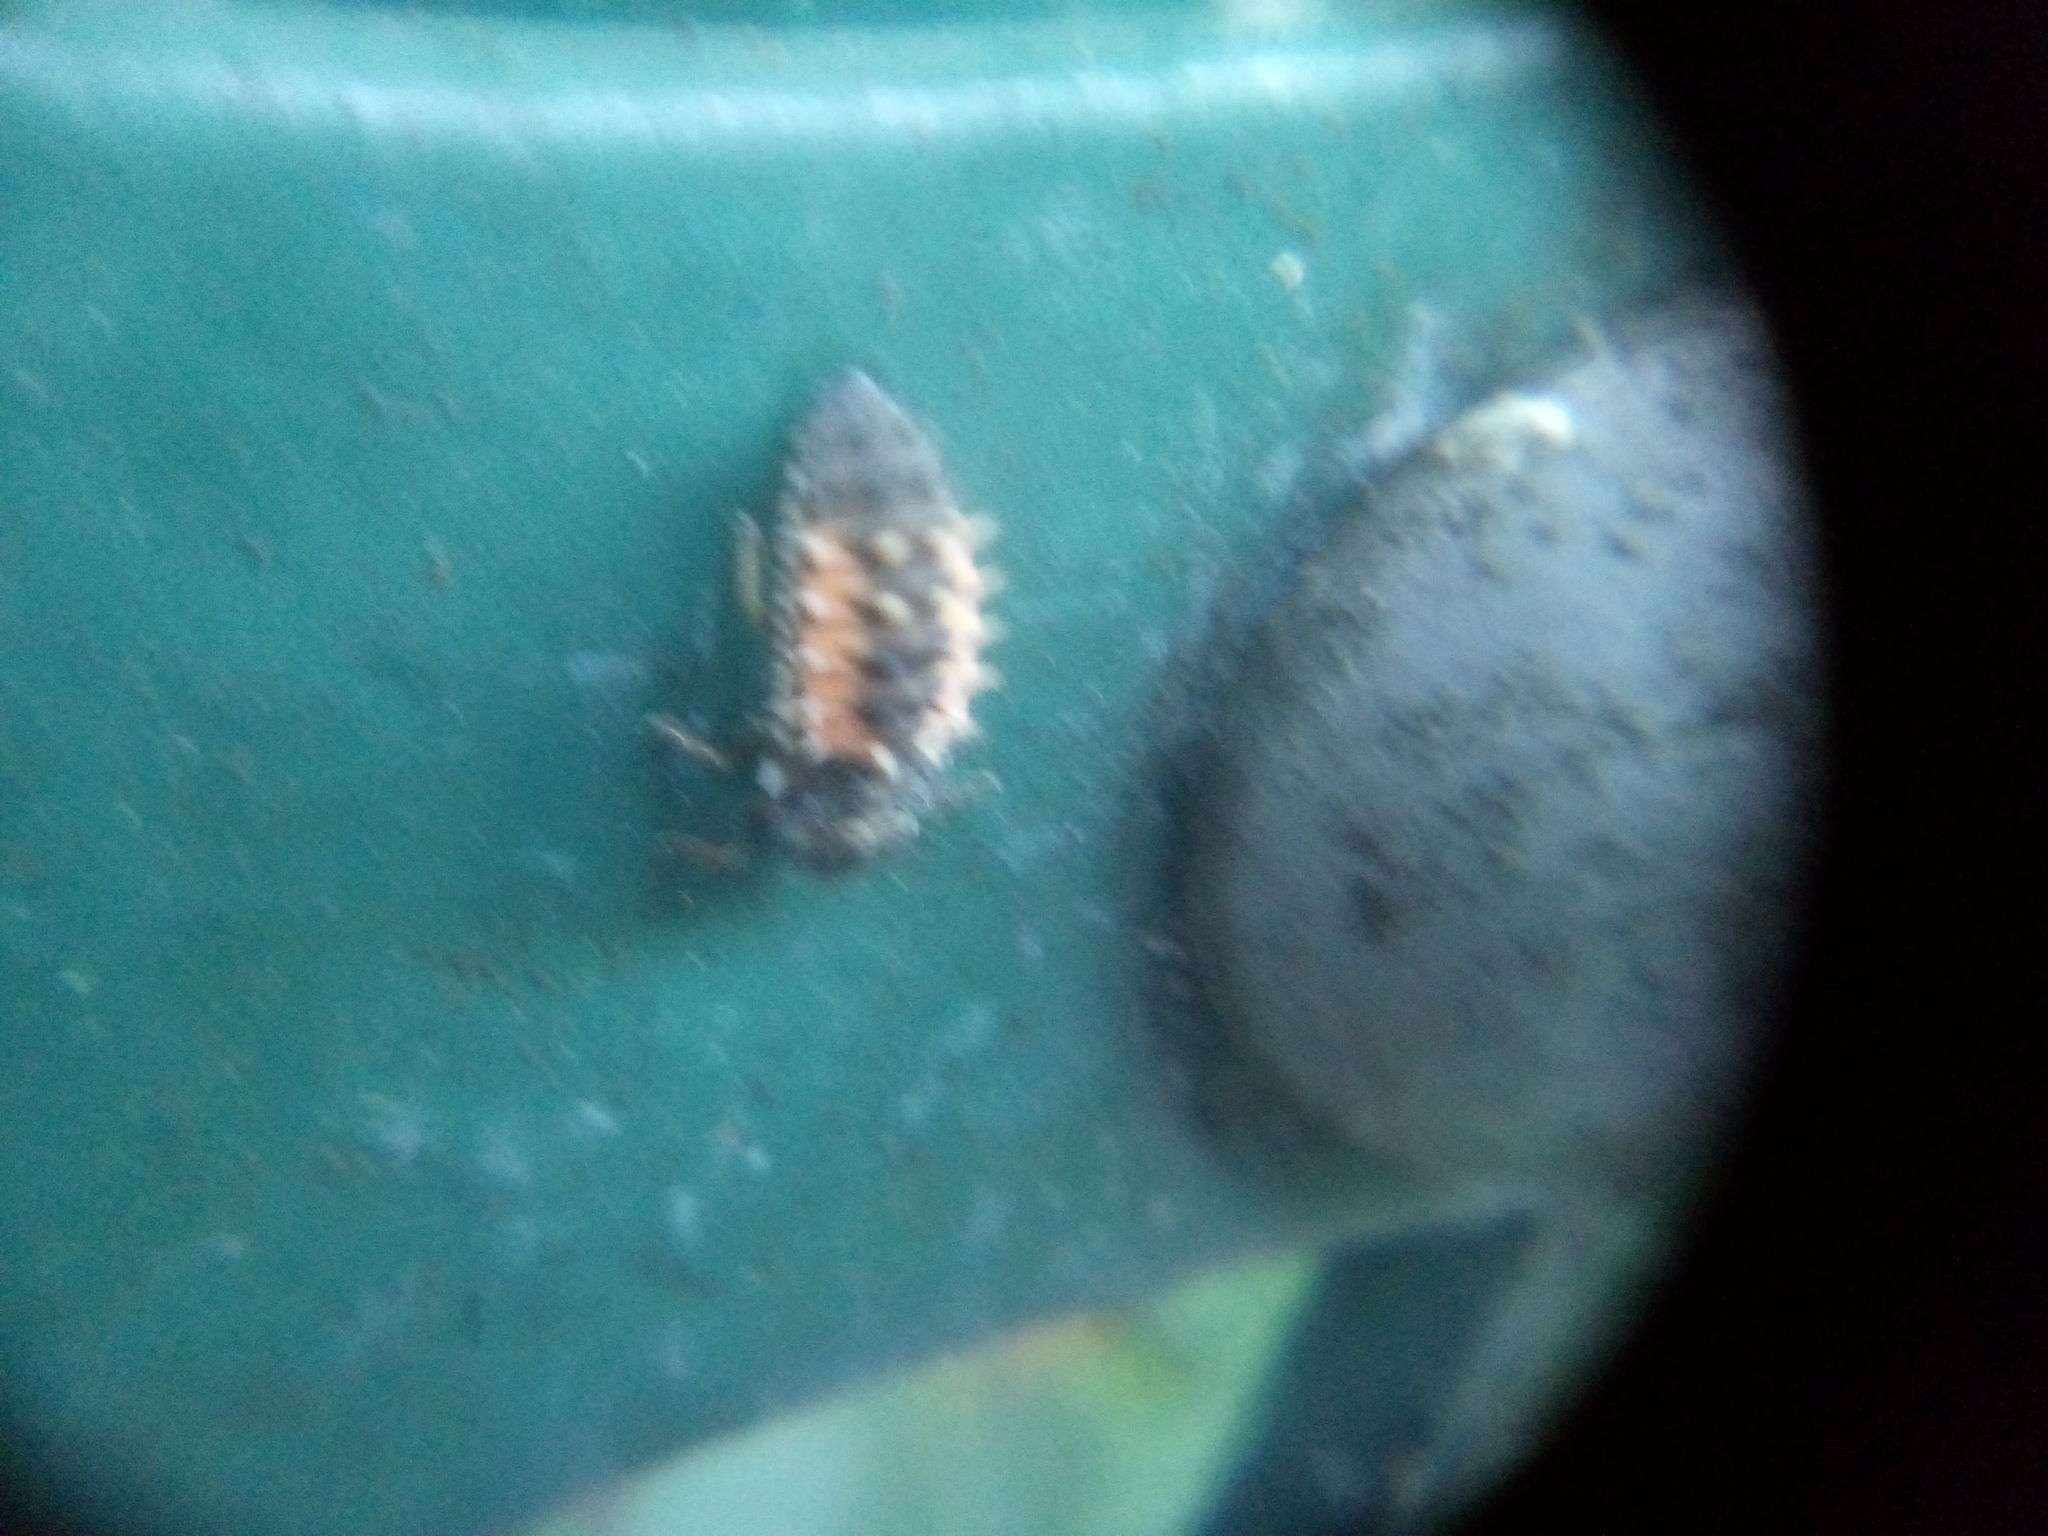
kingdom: Animalia
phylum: Arthropoda
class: Insecta
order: Coleoptera
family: Coccinellidae
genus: Harmonia
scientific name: Harmonia axyridis
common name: Harlequin ladybird
